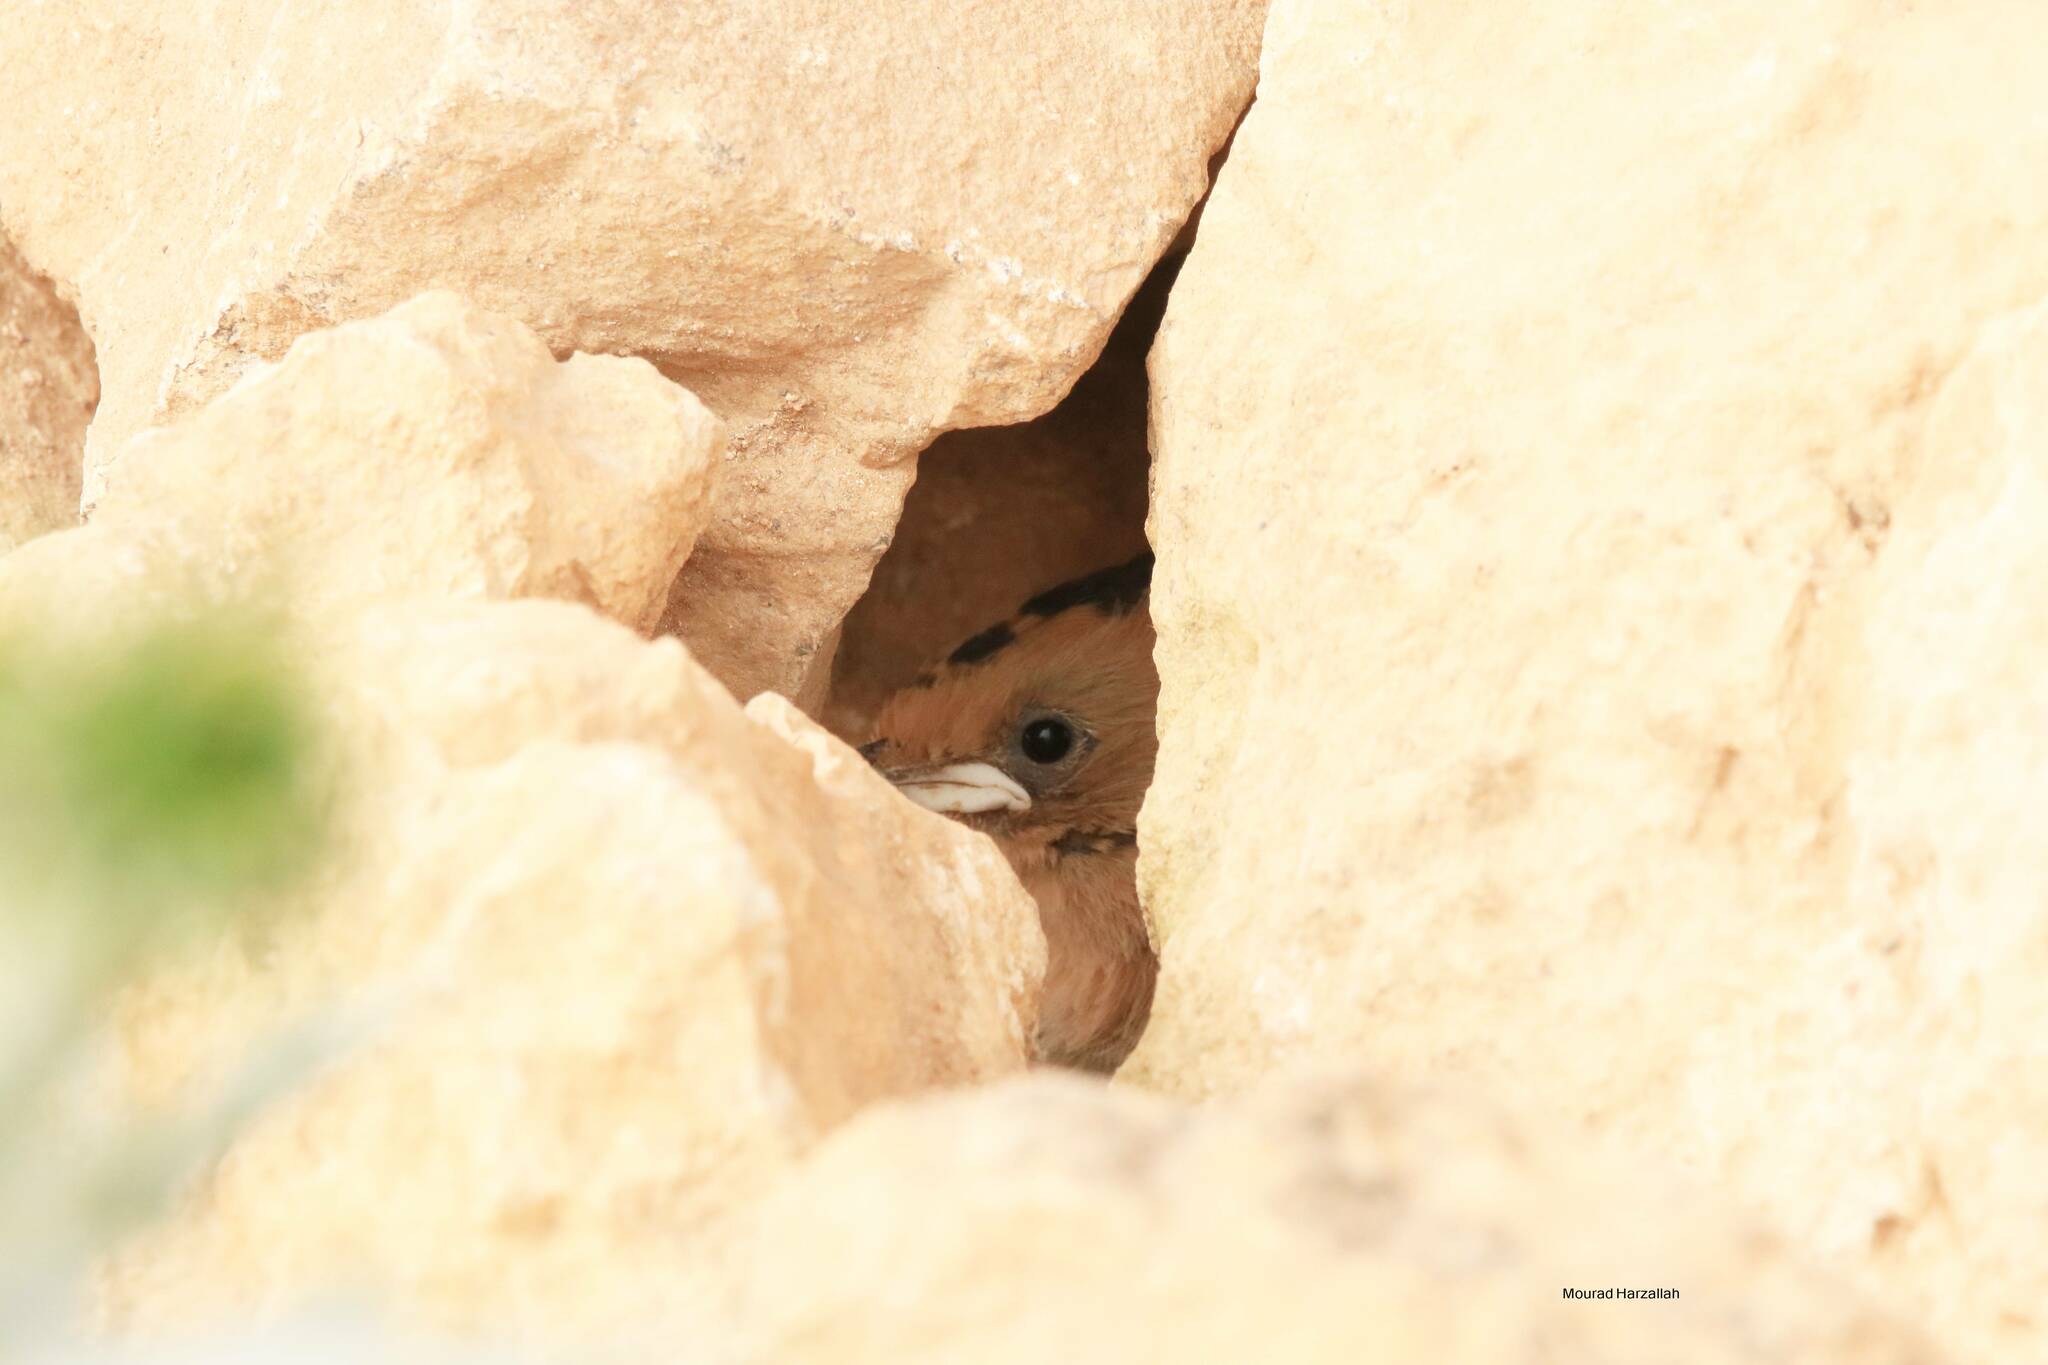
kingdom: Animalia
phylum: Chordata
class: Aves
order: Bucerotiformes
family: Upupidae
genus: Upupa
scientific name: Upupa epops
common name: Eurasian hoopoe
